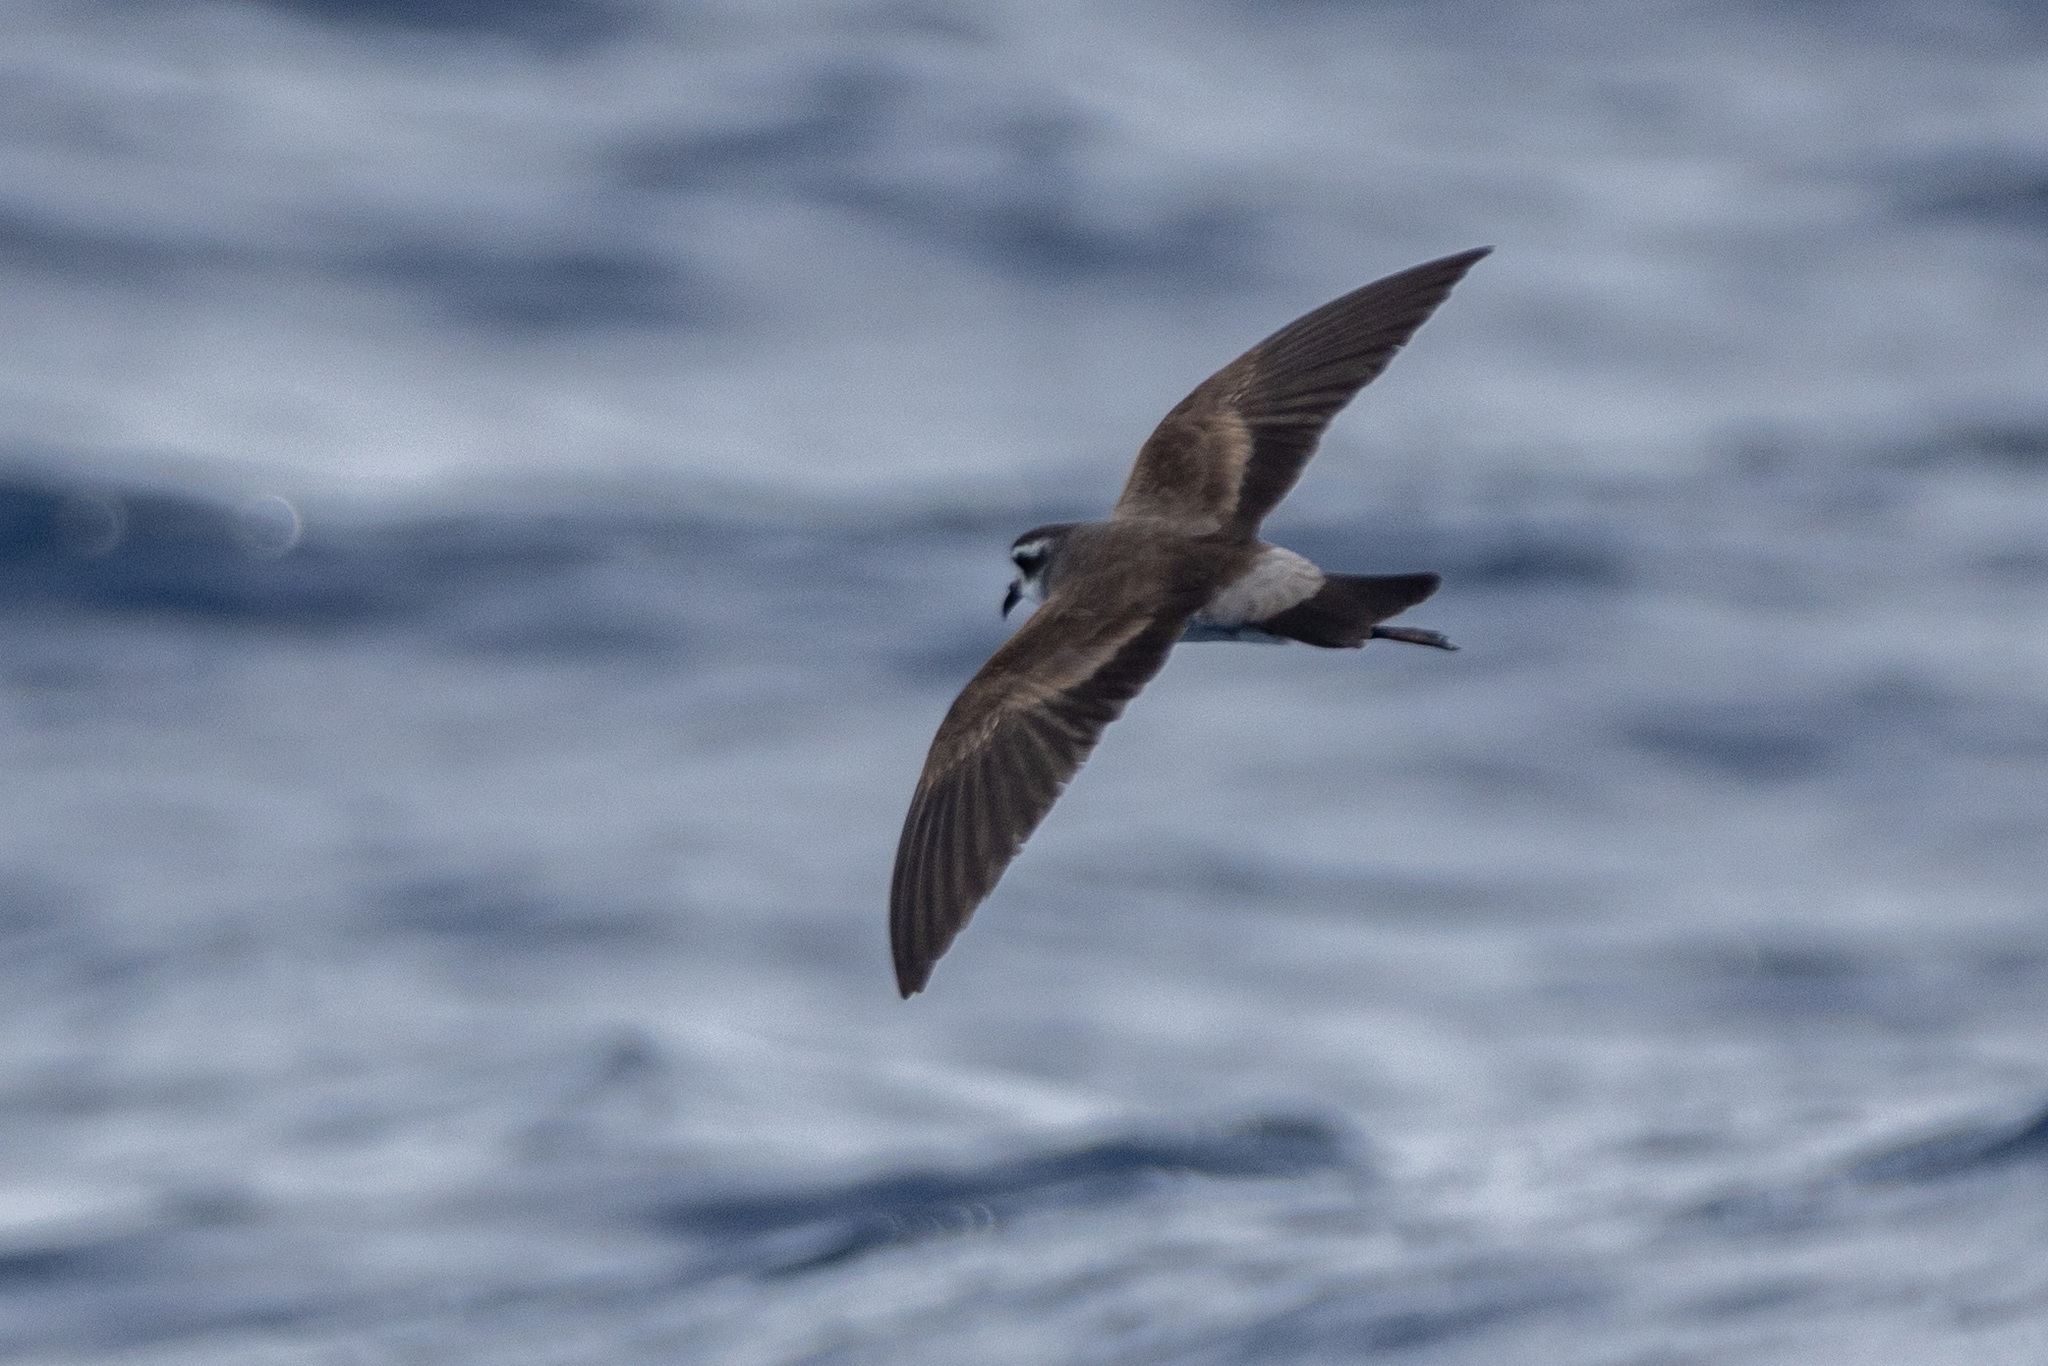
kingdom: Animalia
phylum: Chordata
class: Aves
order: Procellariiformes
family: Hydrobatidae
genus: Pelagodroma
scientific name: Pelagodroma marina
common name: White-faced storm-petrel
